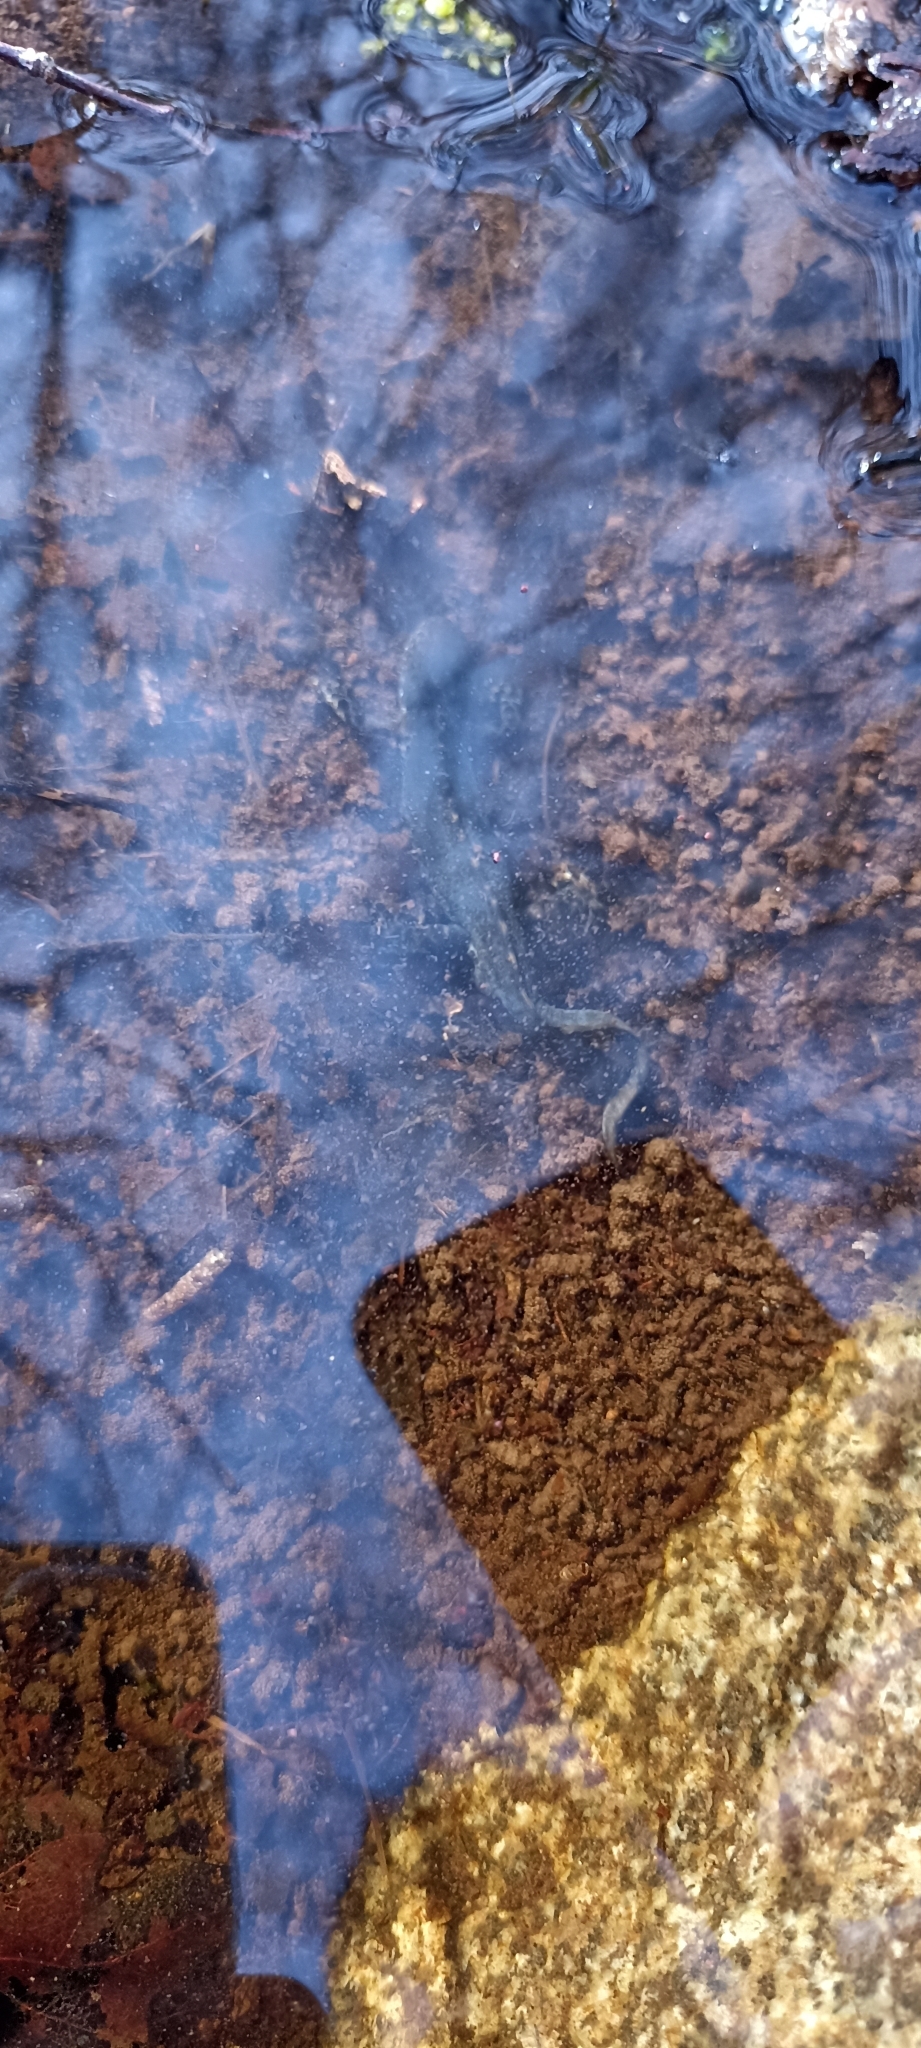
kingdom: Animalia
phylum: Chordata
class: Amphibia
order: Caudata
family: Salamandridae
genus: Ichthyosaura
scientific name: Ichthyosaura alpestris
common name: Alpine newt
